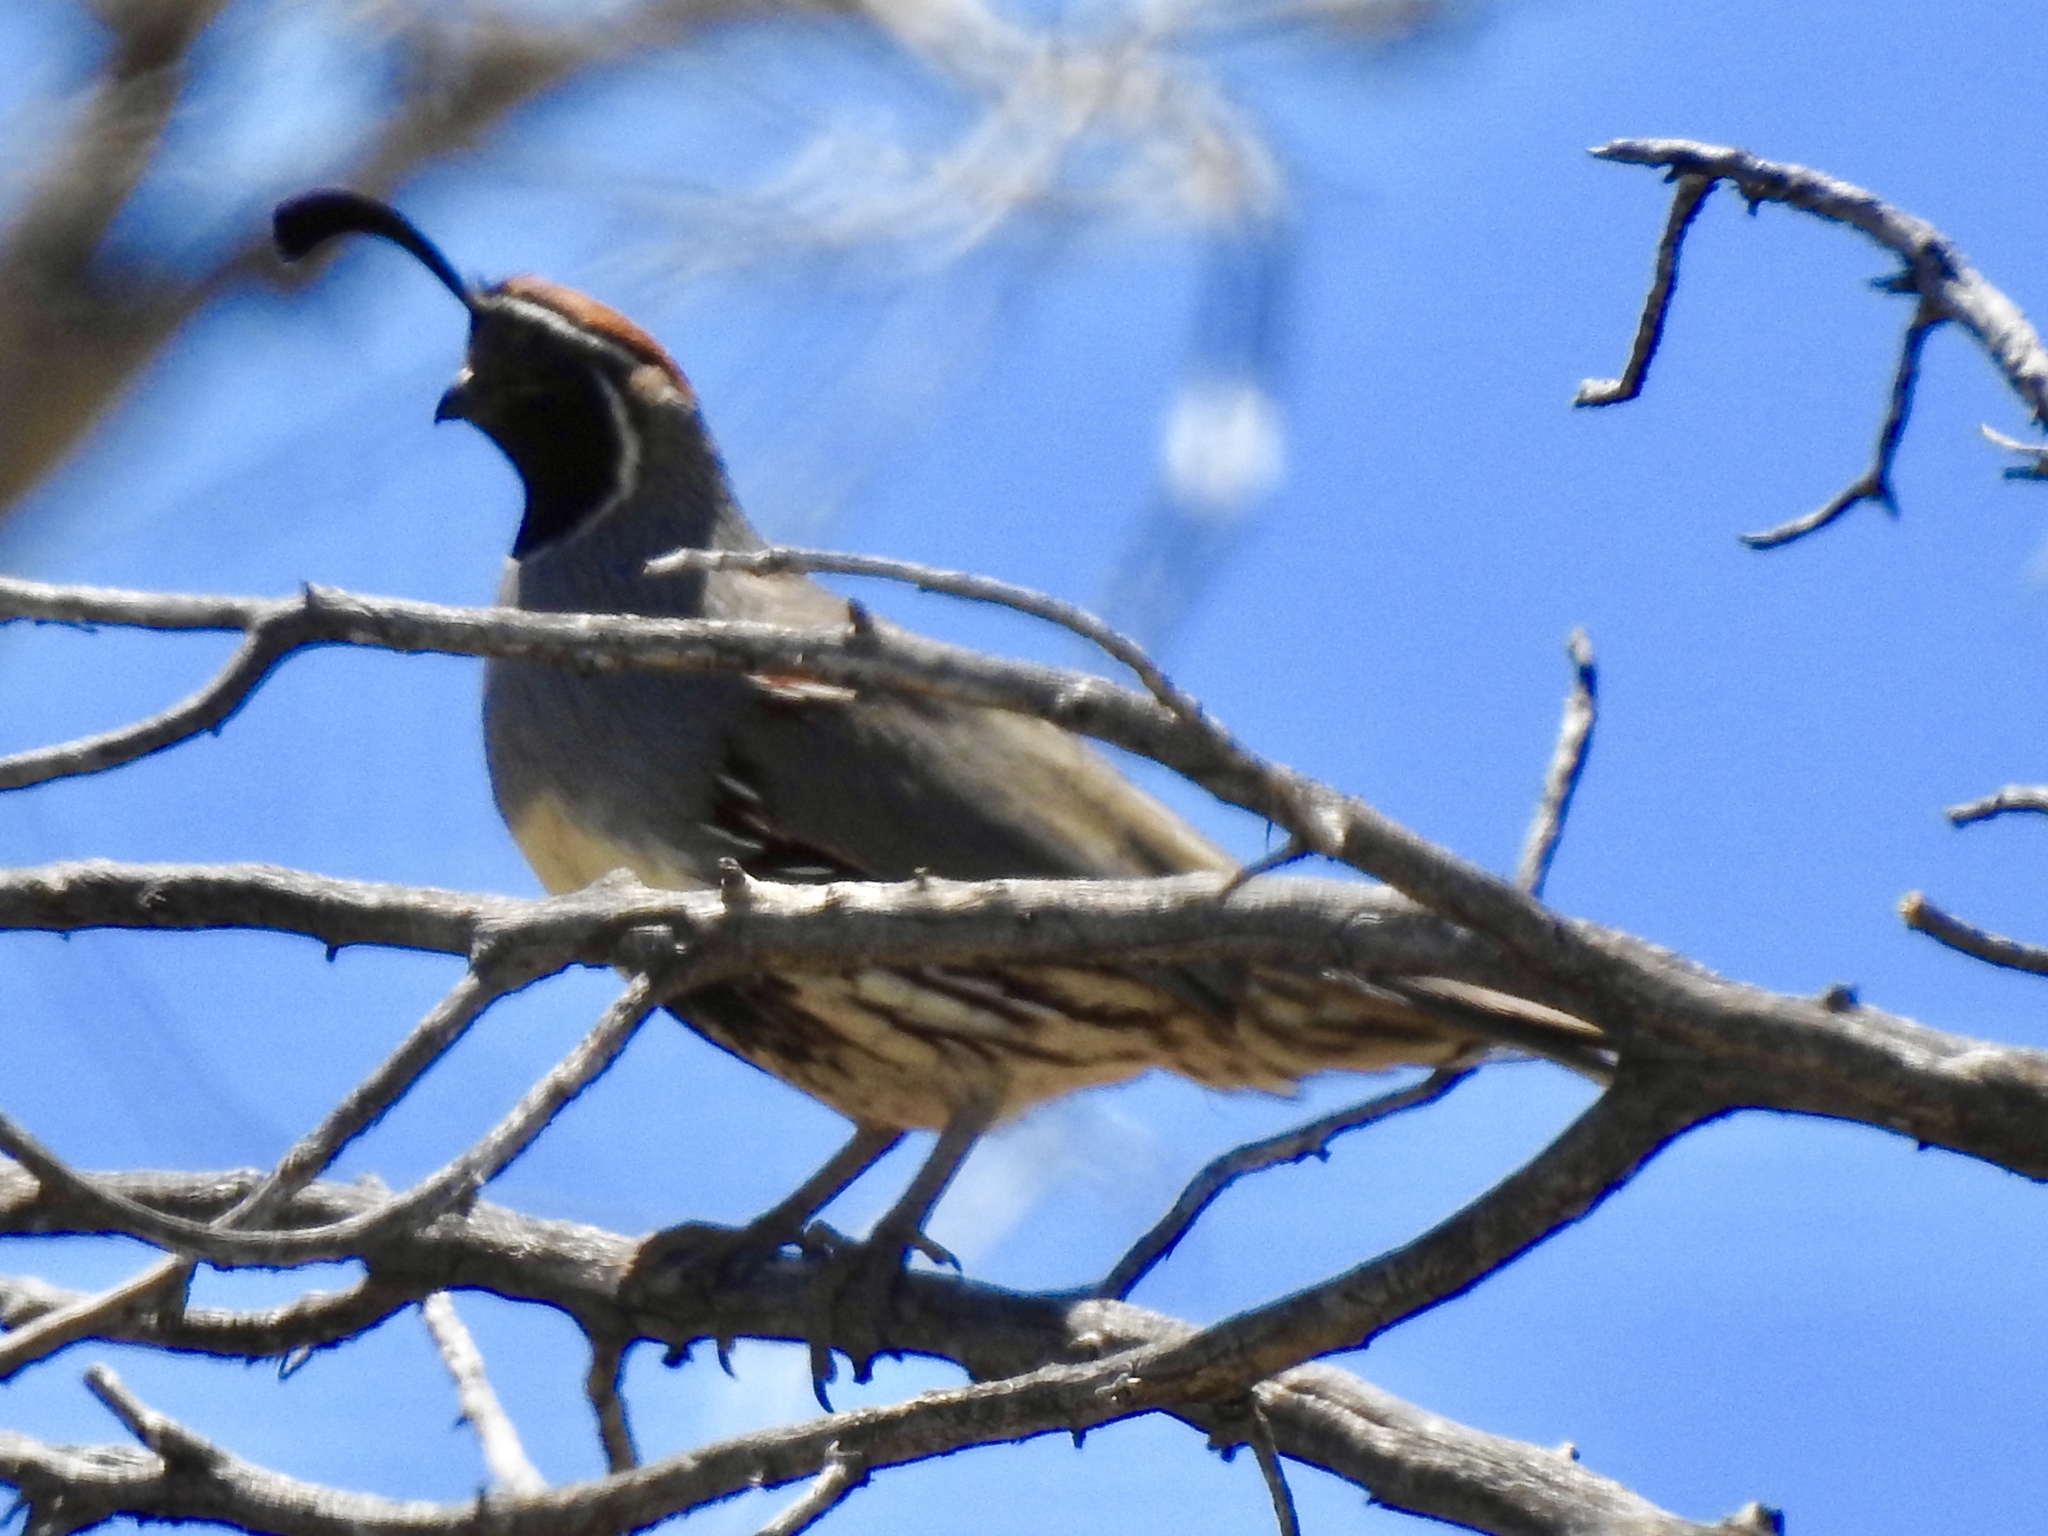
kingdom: Animalia
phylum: Chordata
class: Aves
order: Galliformes
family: Odontophoridae
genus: Callipepla
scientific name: Callipepla gambelii
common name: Gambel's quail
